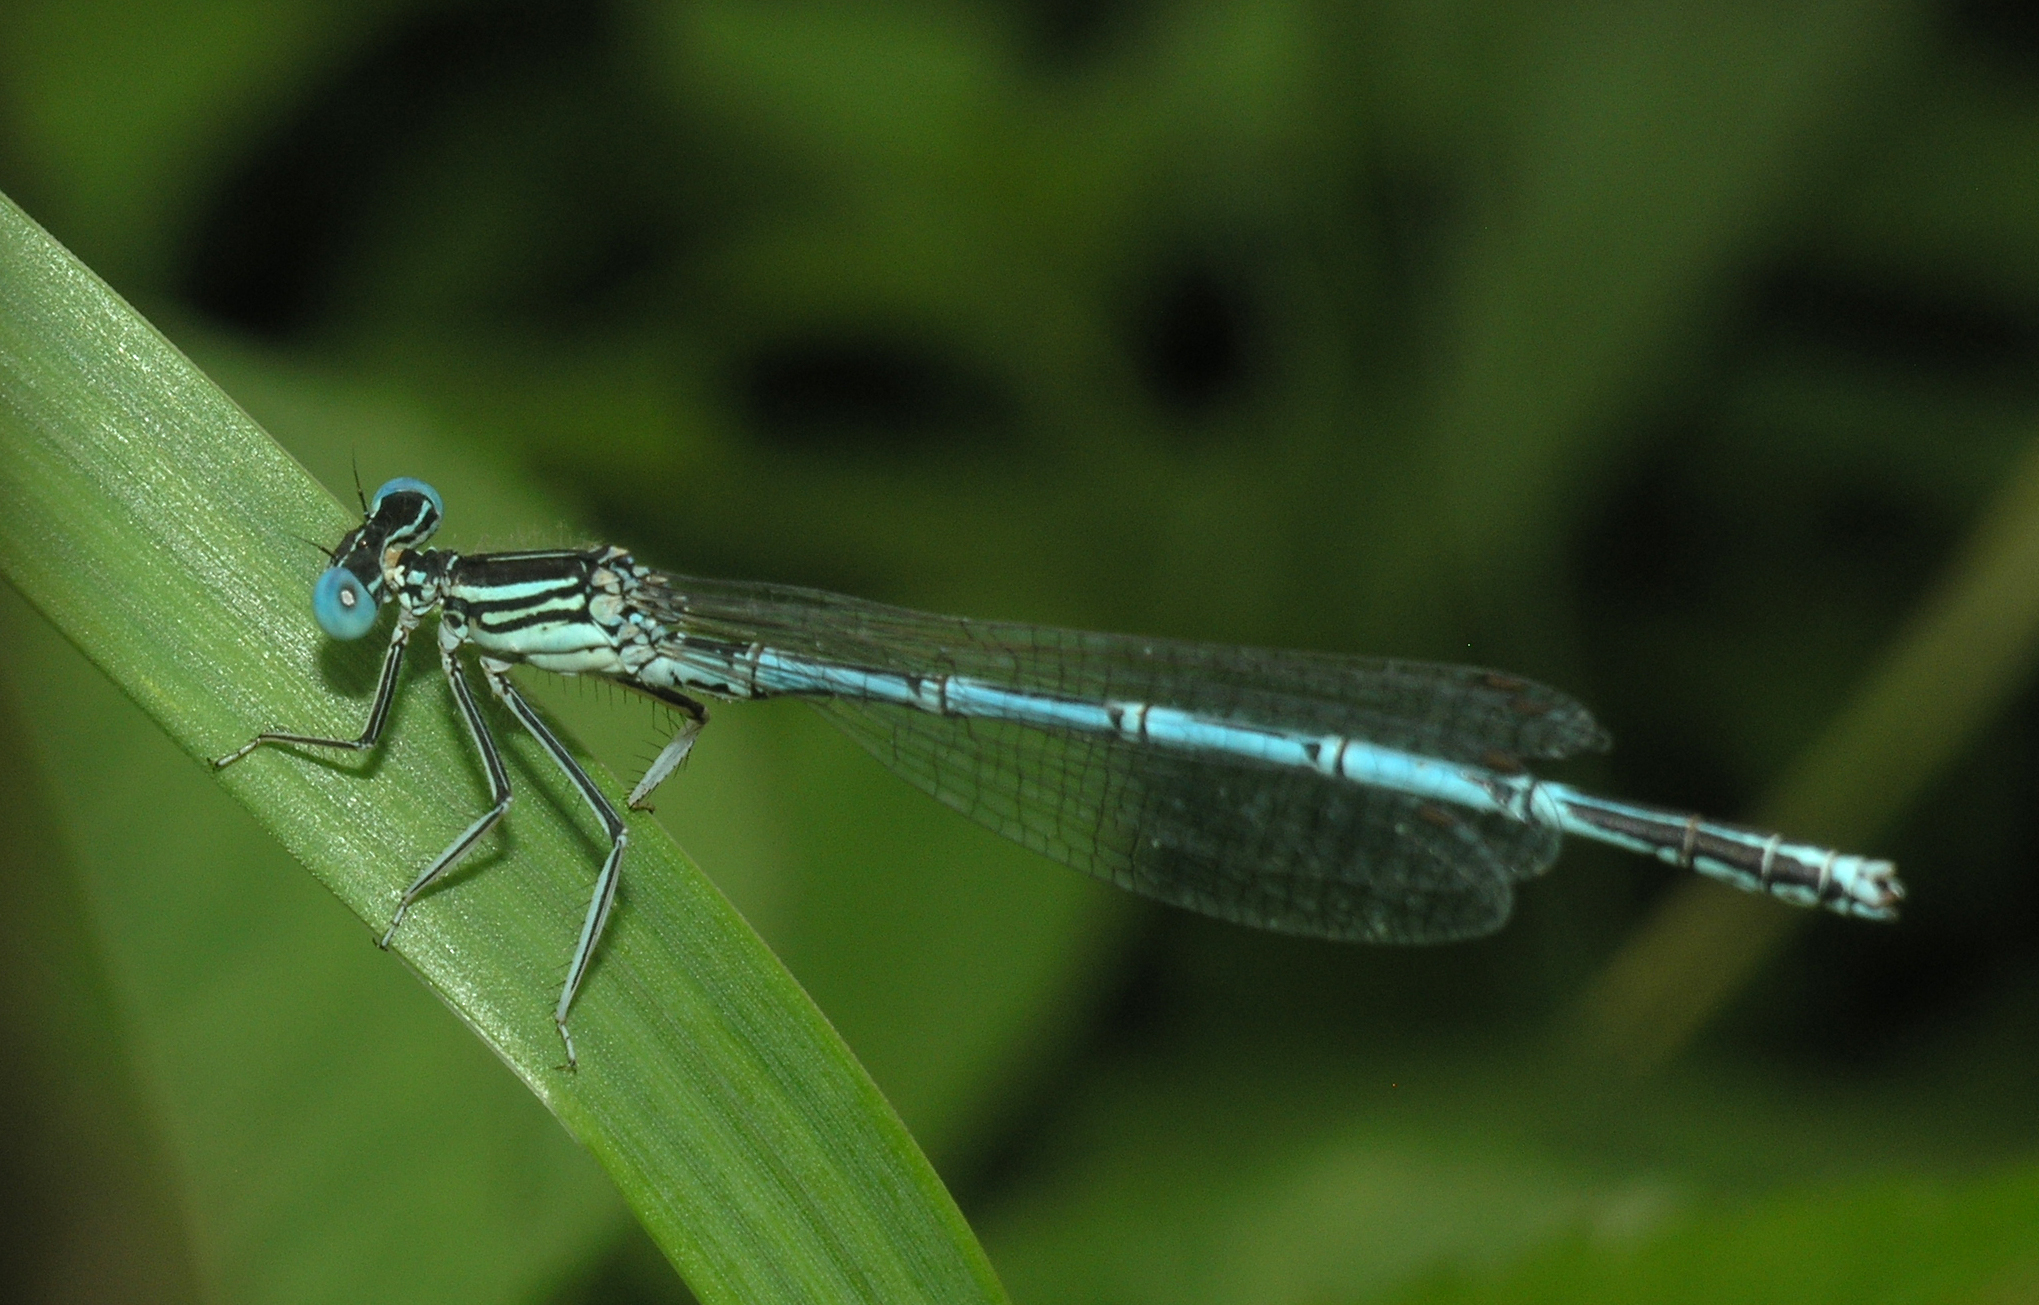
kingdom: Animalia
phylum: Arthropoda
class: Insecta
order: Odonata
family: Platycnemididae
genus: Platycnemis
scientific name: Platycnemis pennipes
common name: White-legged damselfly
